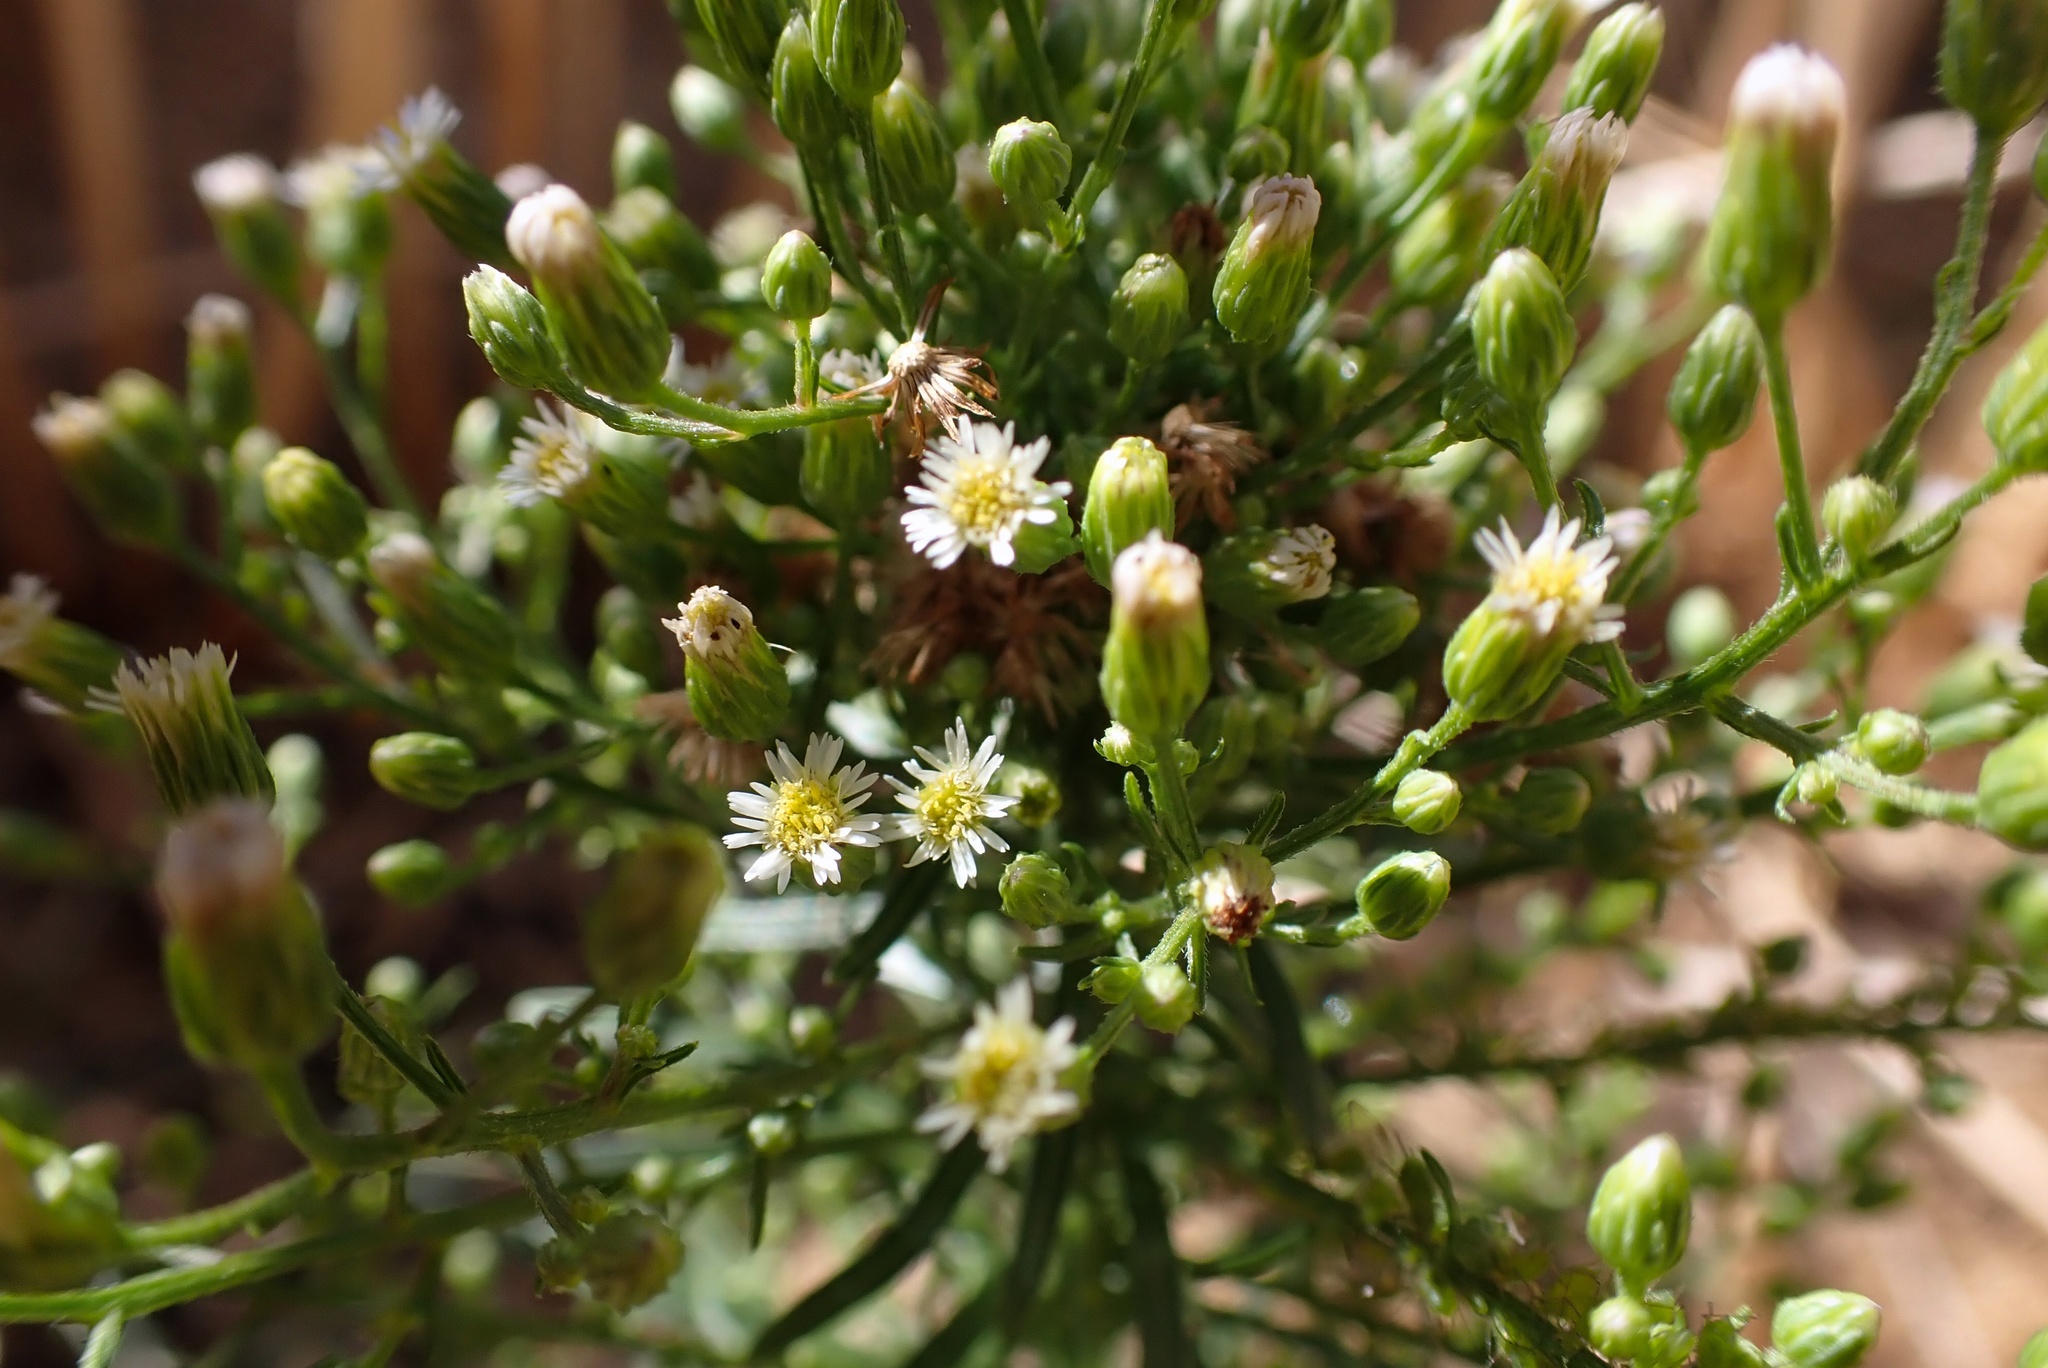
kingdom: Plantae
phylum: Tracheophyta
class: Magnoliopsida
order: Asterales
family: Asteraceae
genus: Erigeron
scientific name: Erigeron canadensis
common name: Canadian fleabane
